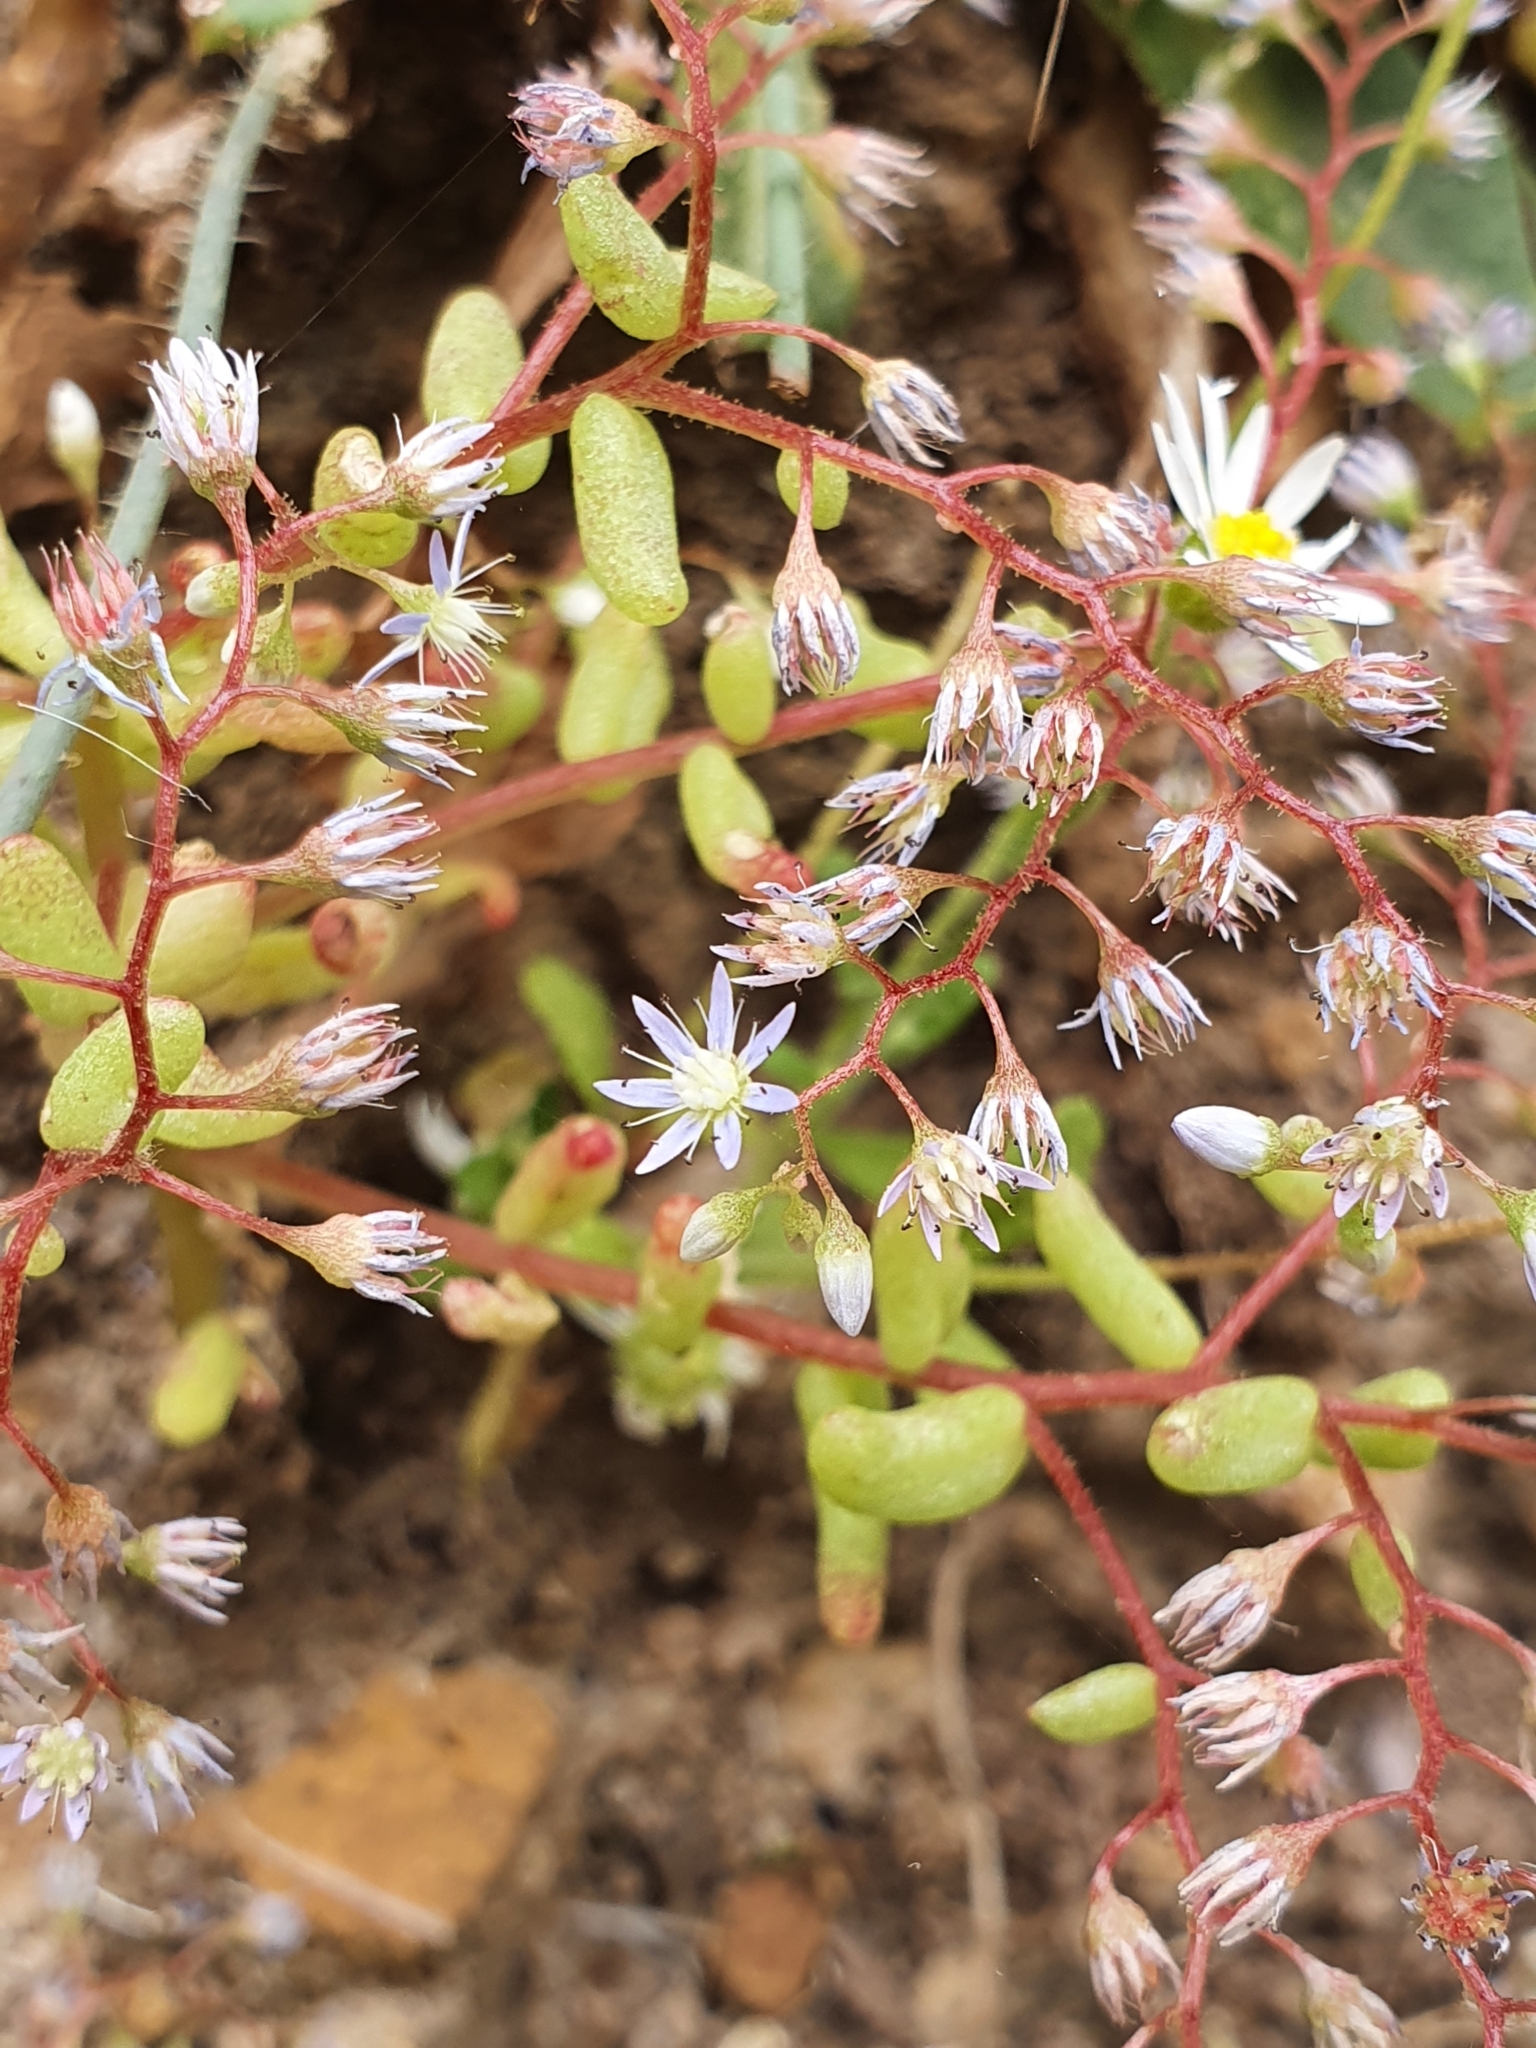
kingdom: Plantae
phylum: Tracheophyta
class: Magnoliopsida
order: Saxifragales
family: Crassulaceae
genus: Sedum
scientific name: Sedum caeruleum
